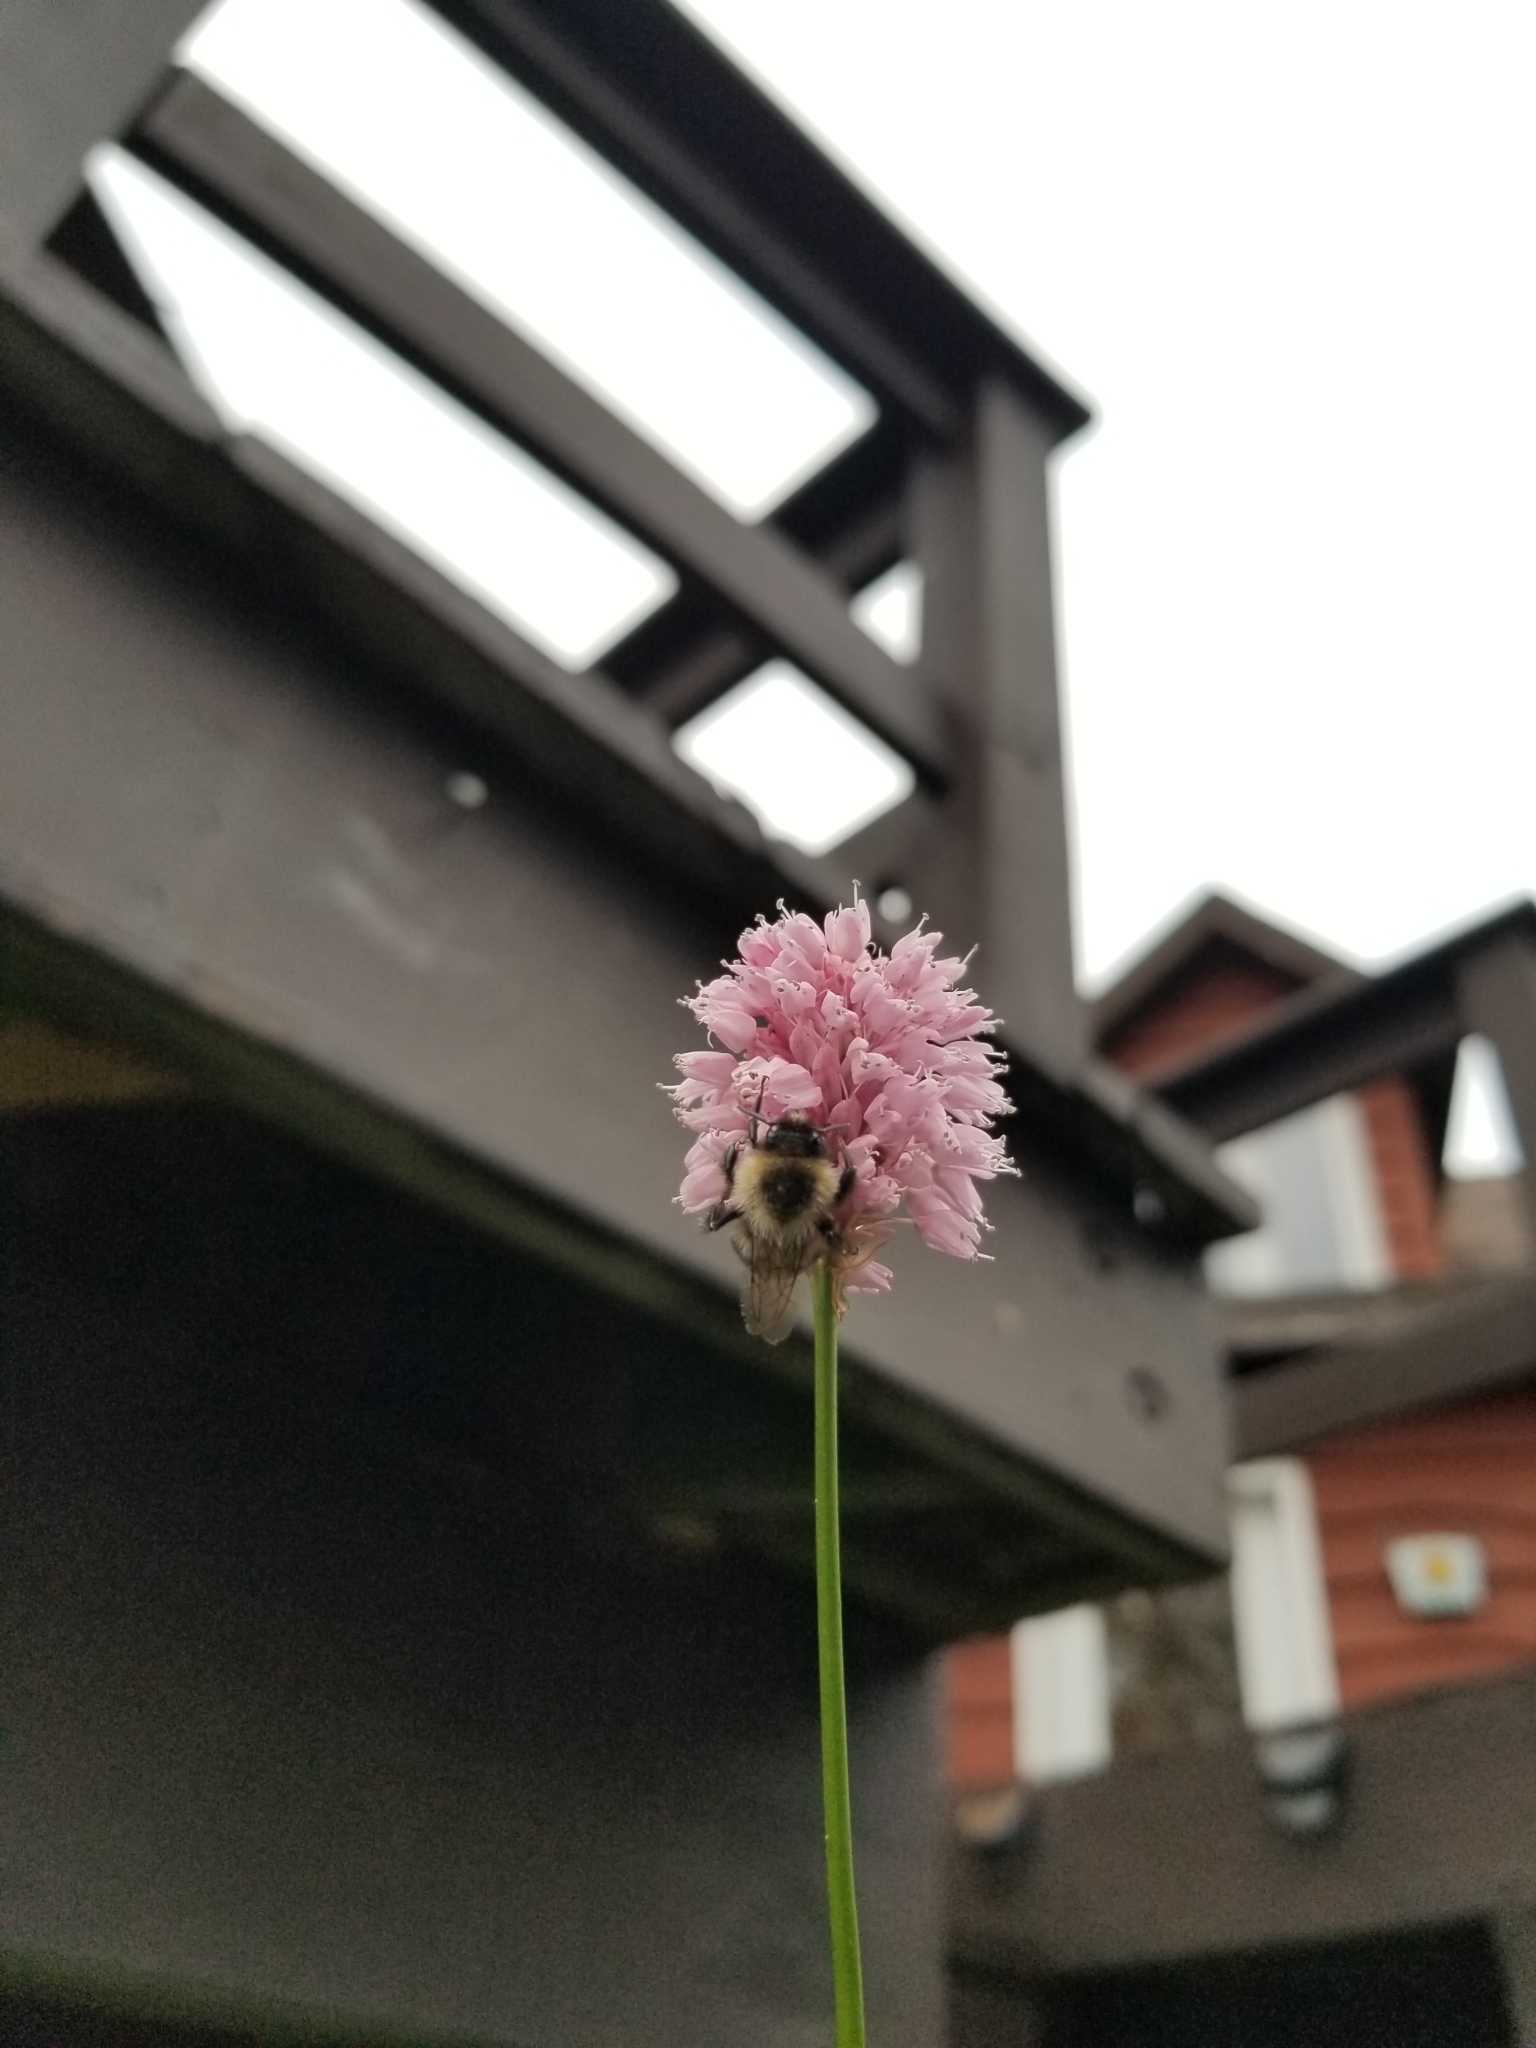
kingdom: Animalia
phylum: Arthropoda
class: Insecta
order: Hymenoptera
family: Apidae
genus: Bombus
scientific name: Bombus impatiens
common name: Common eastern bumble bee
